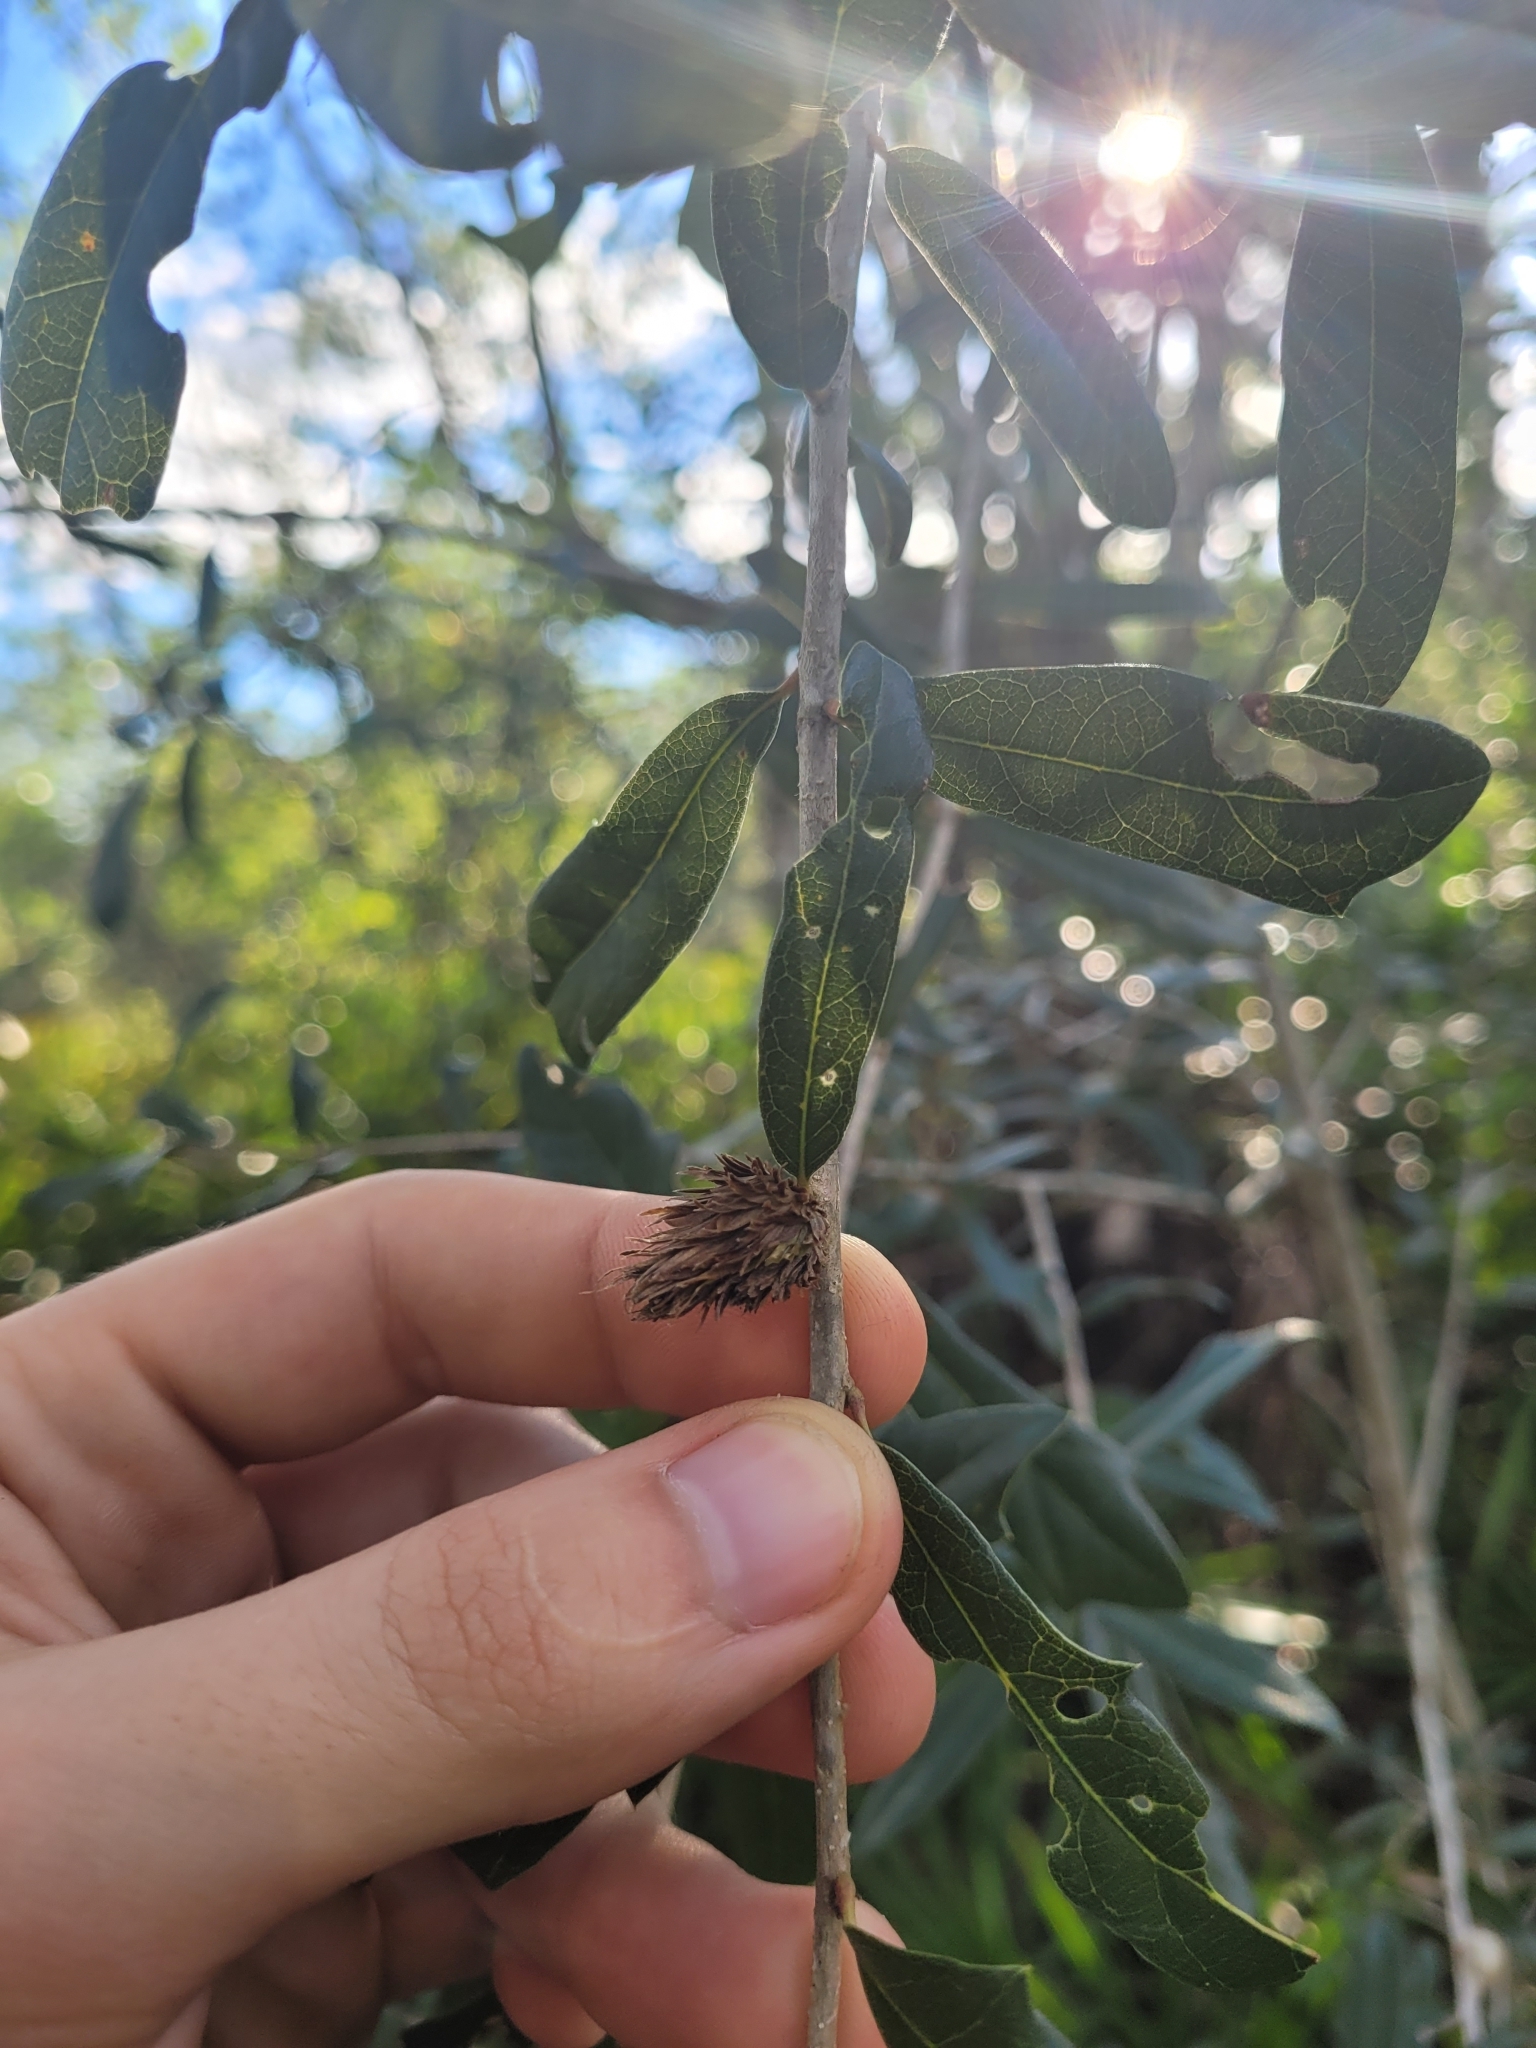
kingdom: Animalia
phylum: Arthropoda
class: Insecta
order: Hymenoptera
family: Cynipidae
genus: Andricus
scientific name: Andricus quercusfoliatus
